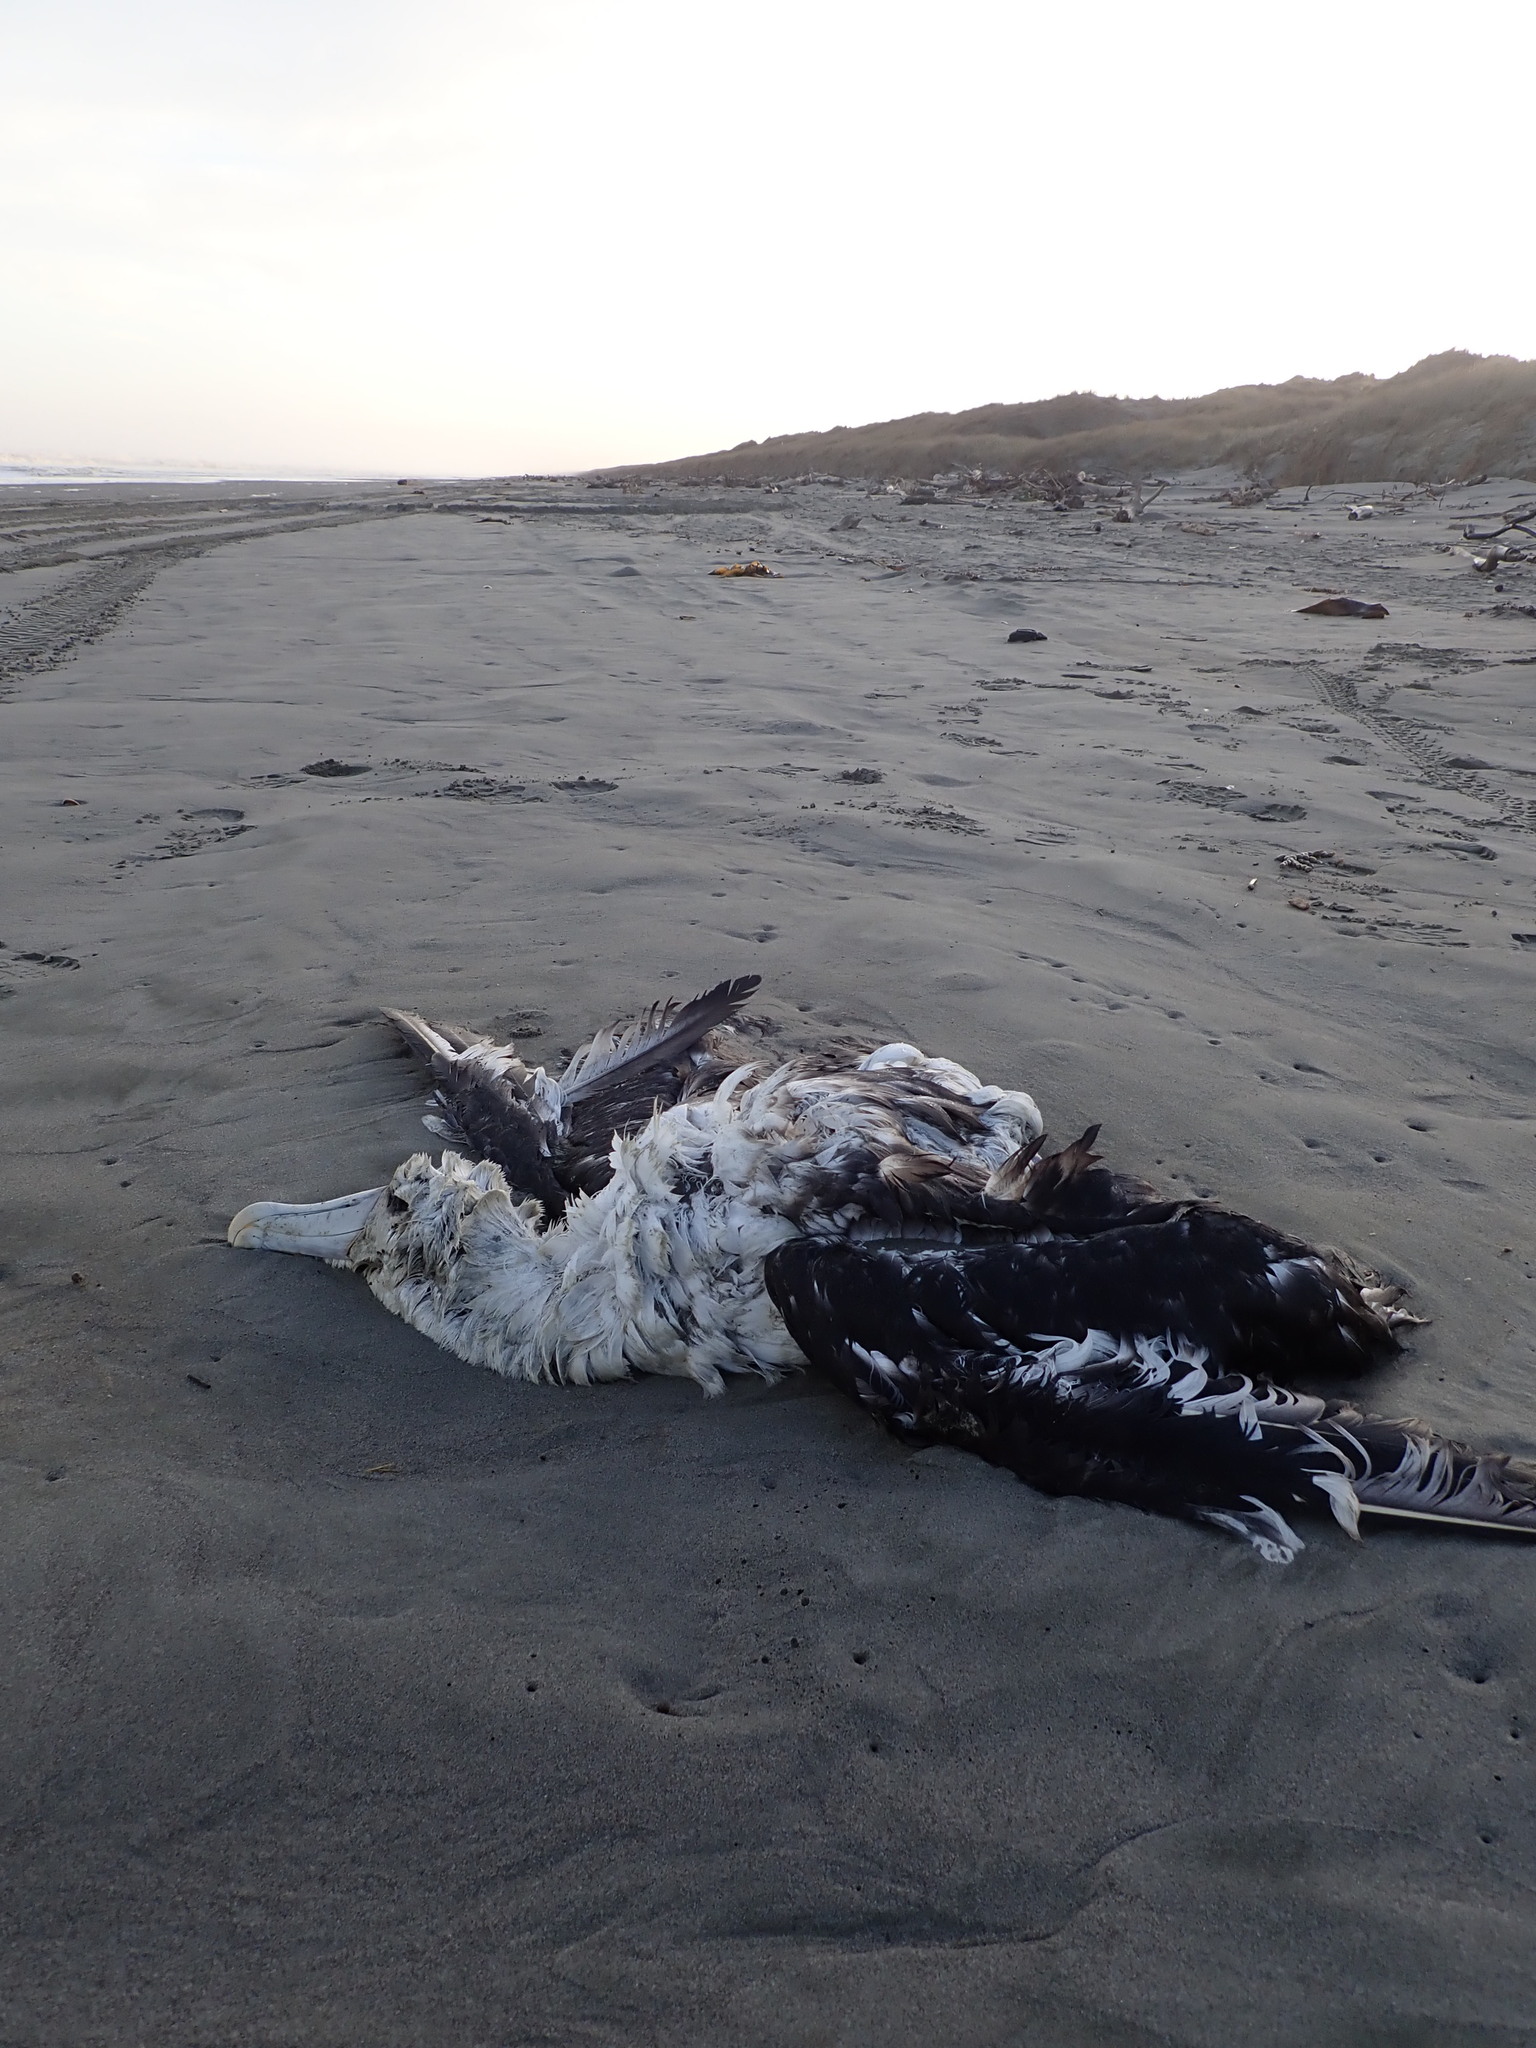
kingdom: Plantae
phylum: Tracheophyta
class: Magnoliopsida
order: Gentianales
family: Rubiaceae
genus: Coprosma
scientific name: Coprosma acerosa
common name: Sand coprosma
